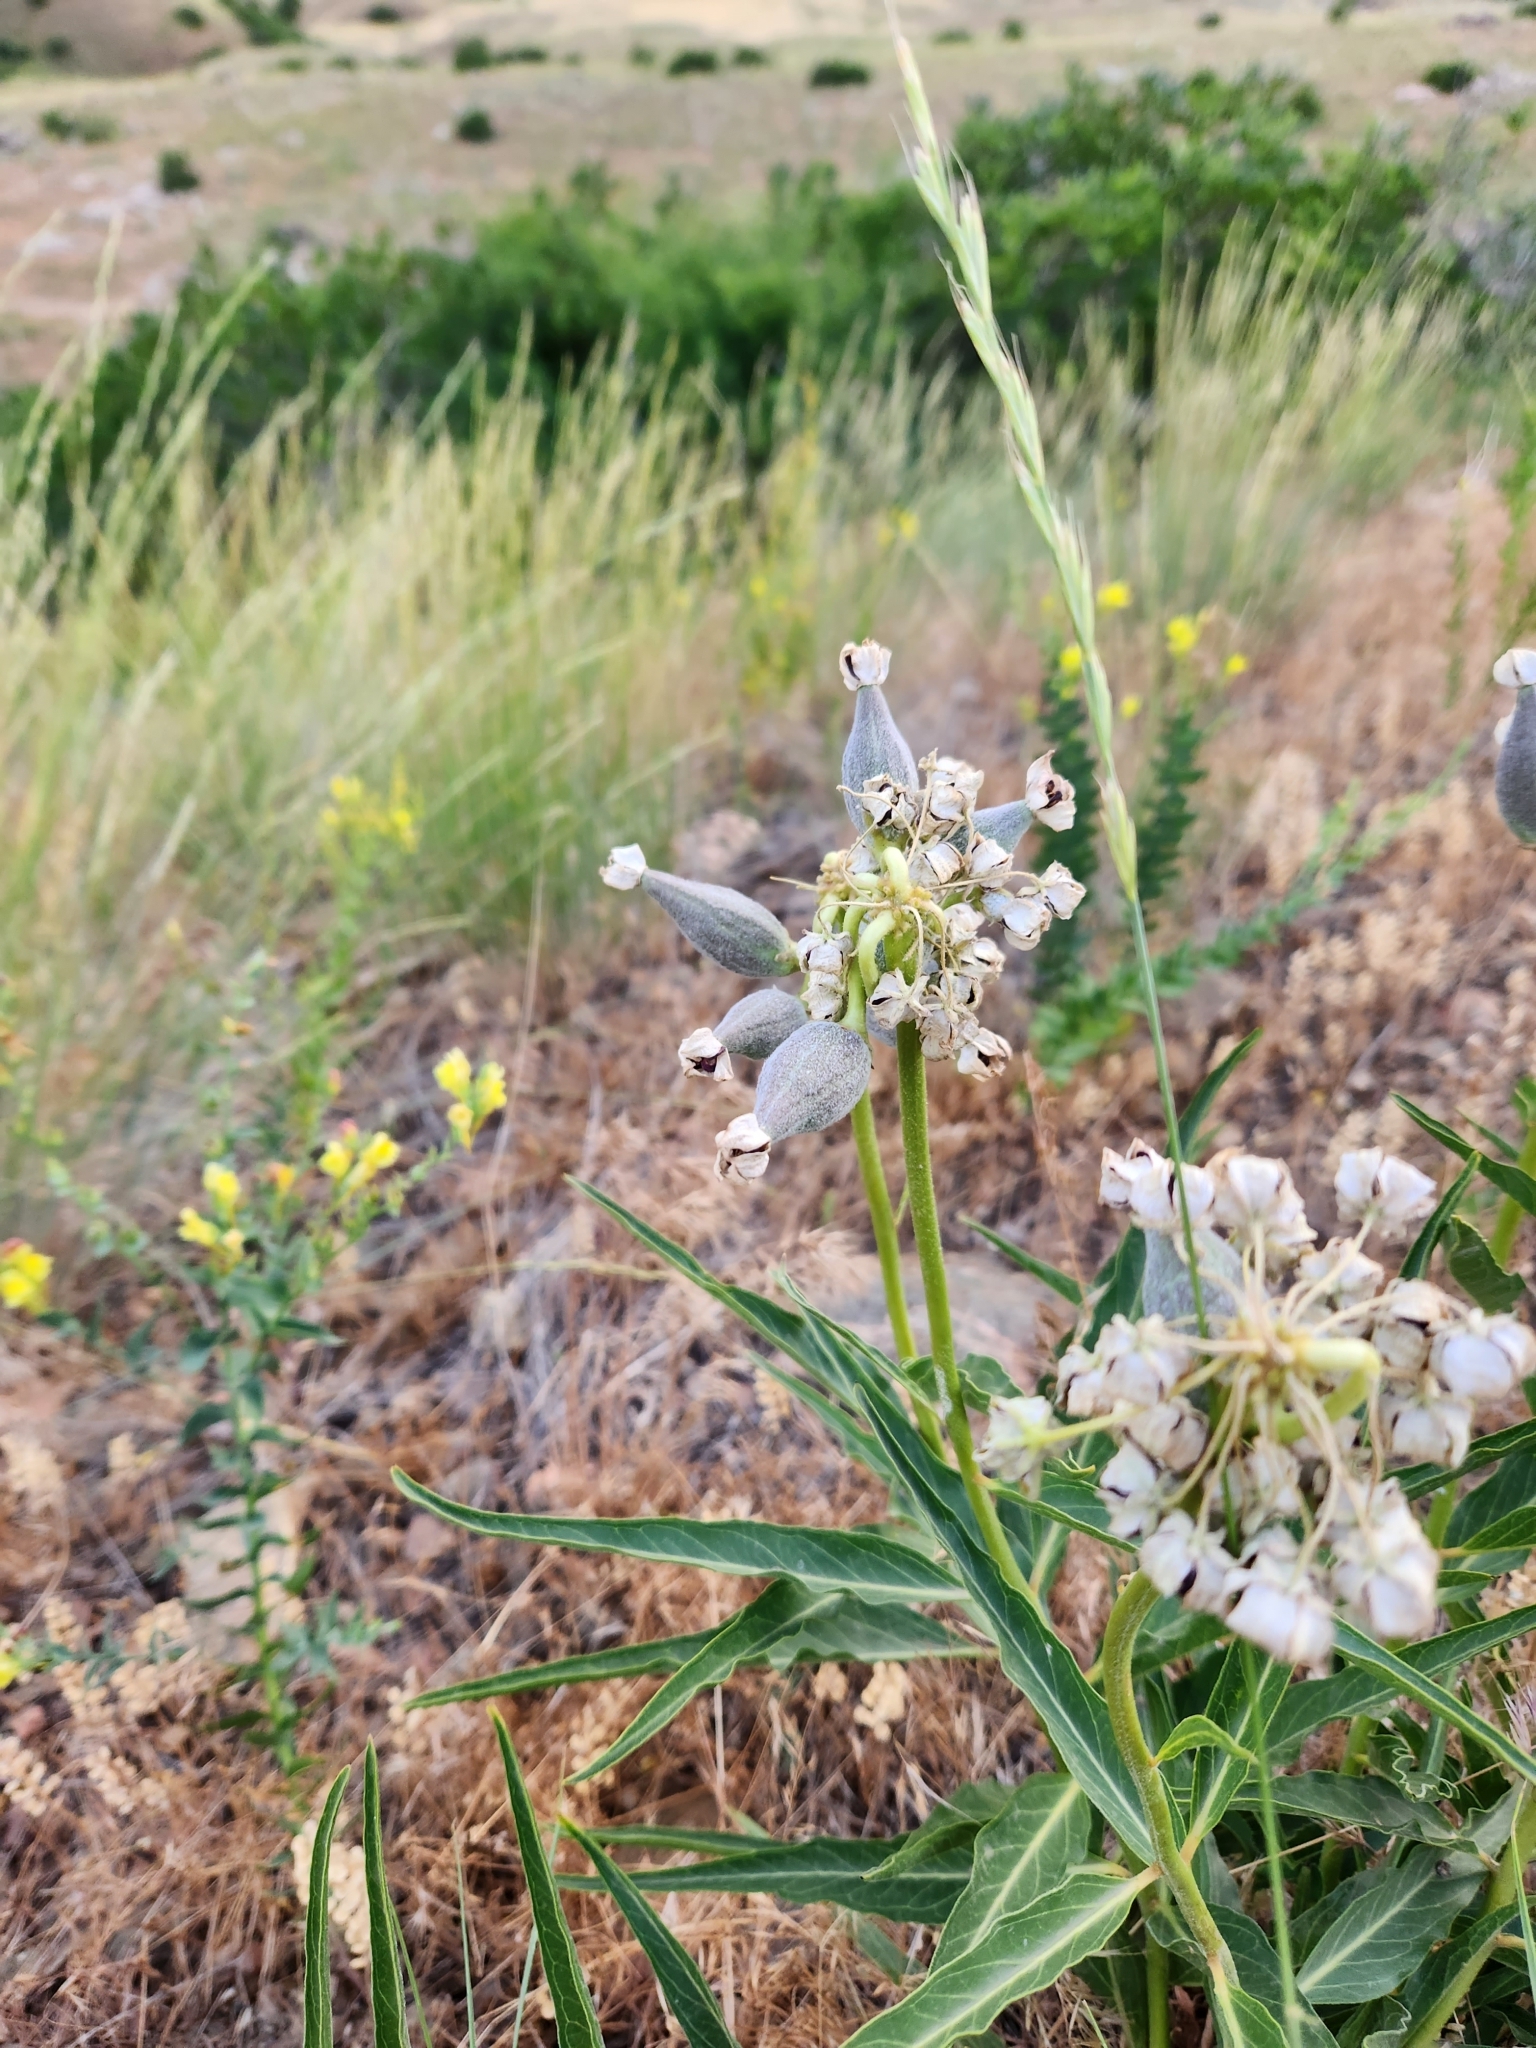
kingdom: Plantae
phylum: Tracheophyta
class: Magnoliopsida
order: Gentianales
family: Apocynaceae
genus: Asclepias
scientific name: Asclepias asperula
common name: Antelope horns
